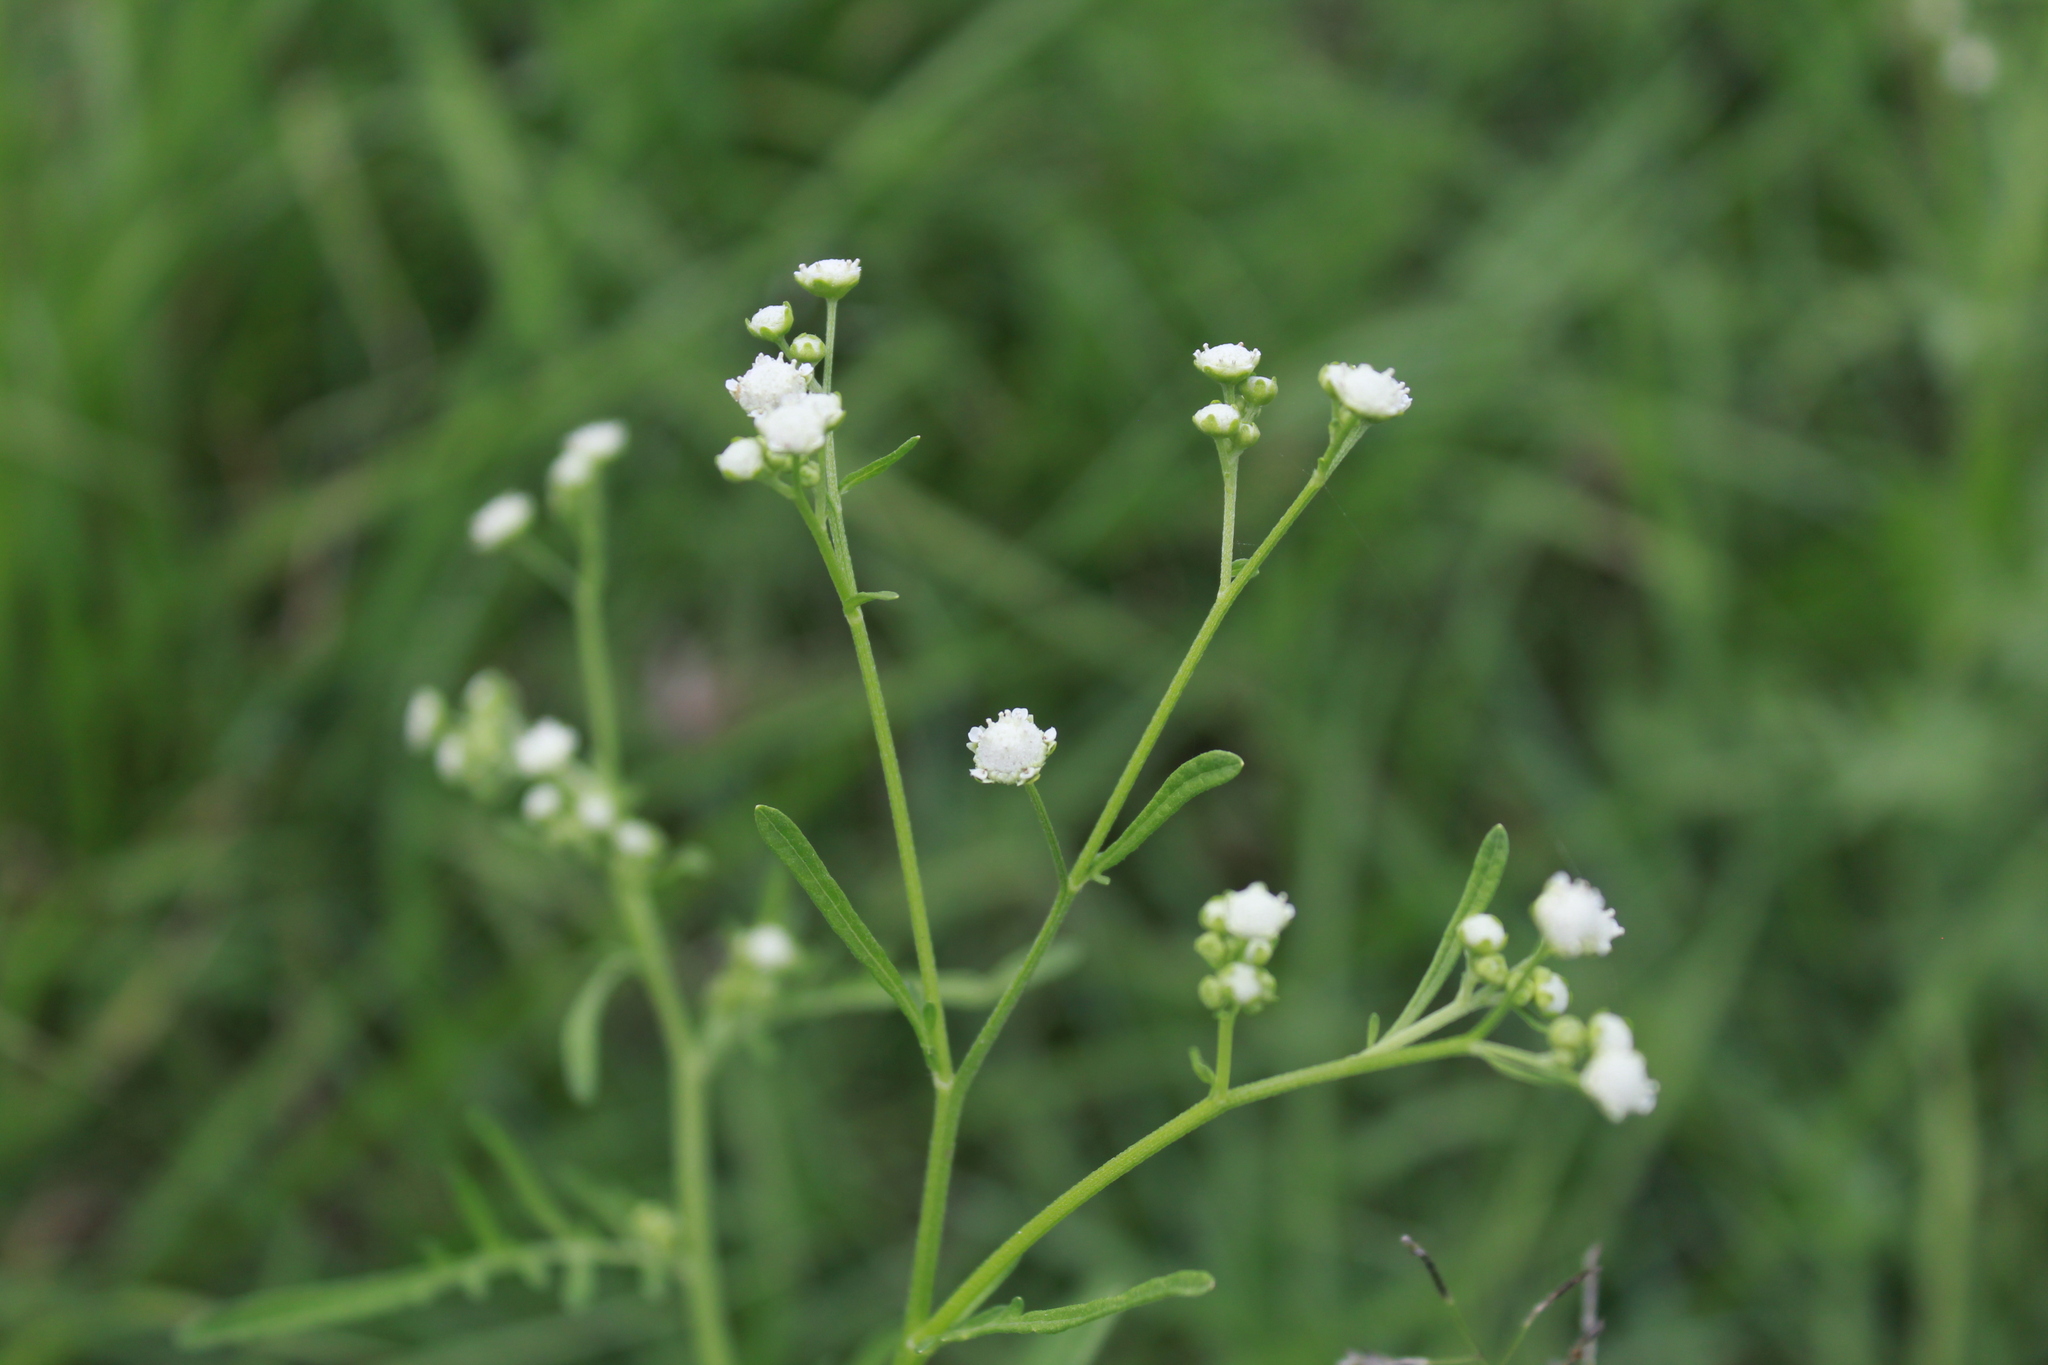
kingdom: Plantae
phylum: Tracheophyta
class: Magnoliopsida
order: Asterales
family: Asteraceae
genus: Parthenium
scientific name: Parthenium hysterophorus
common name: Santa maria feverfew
